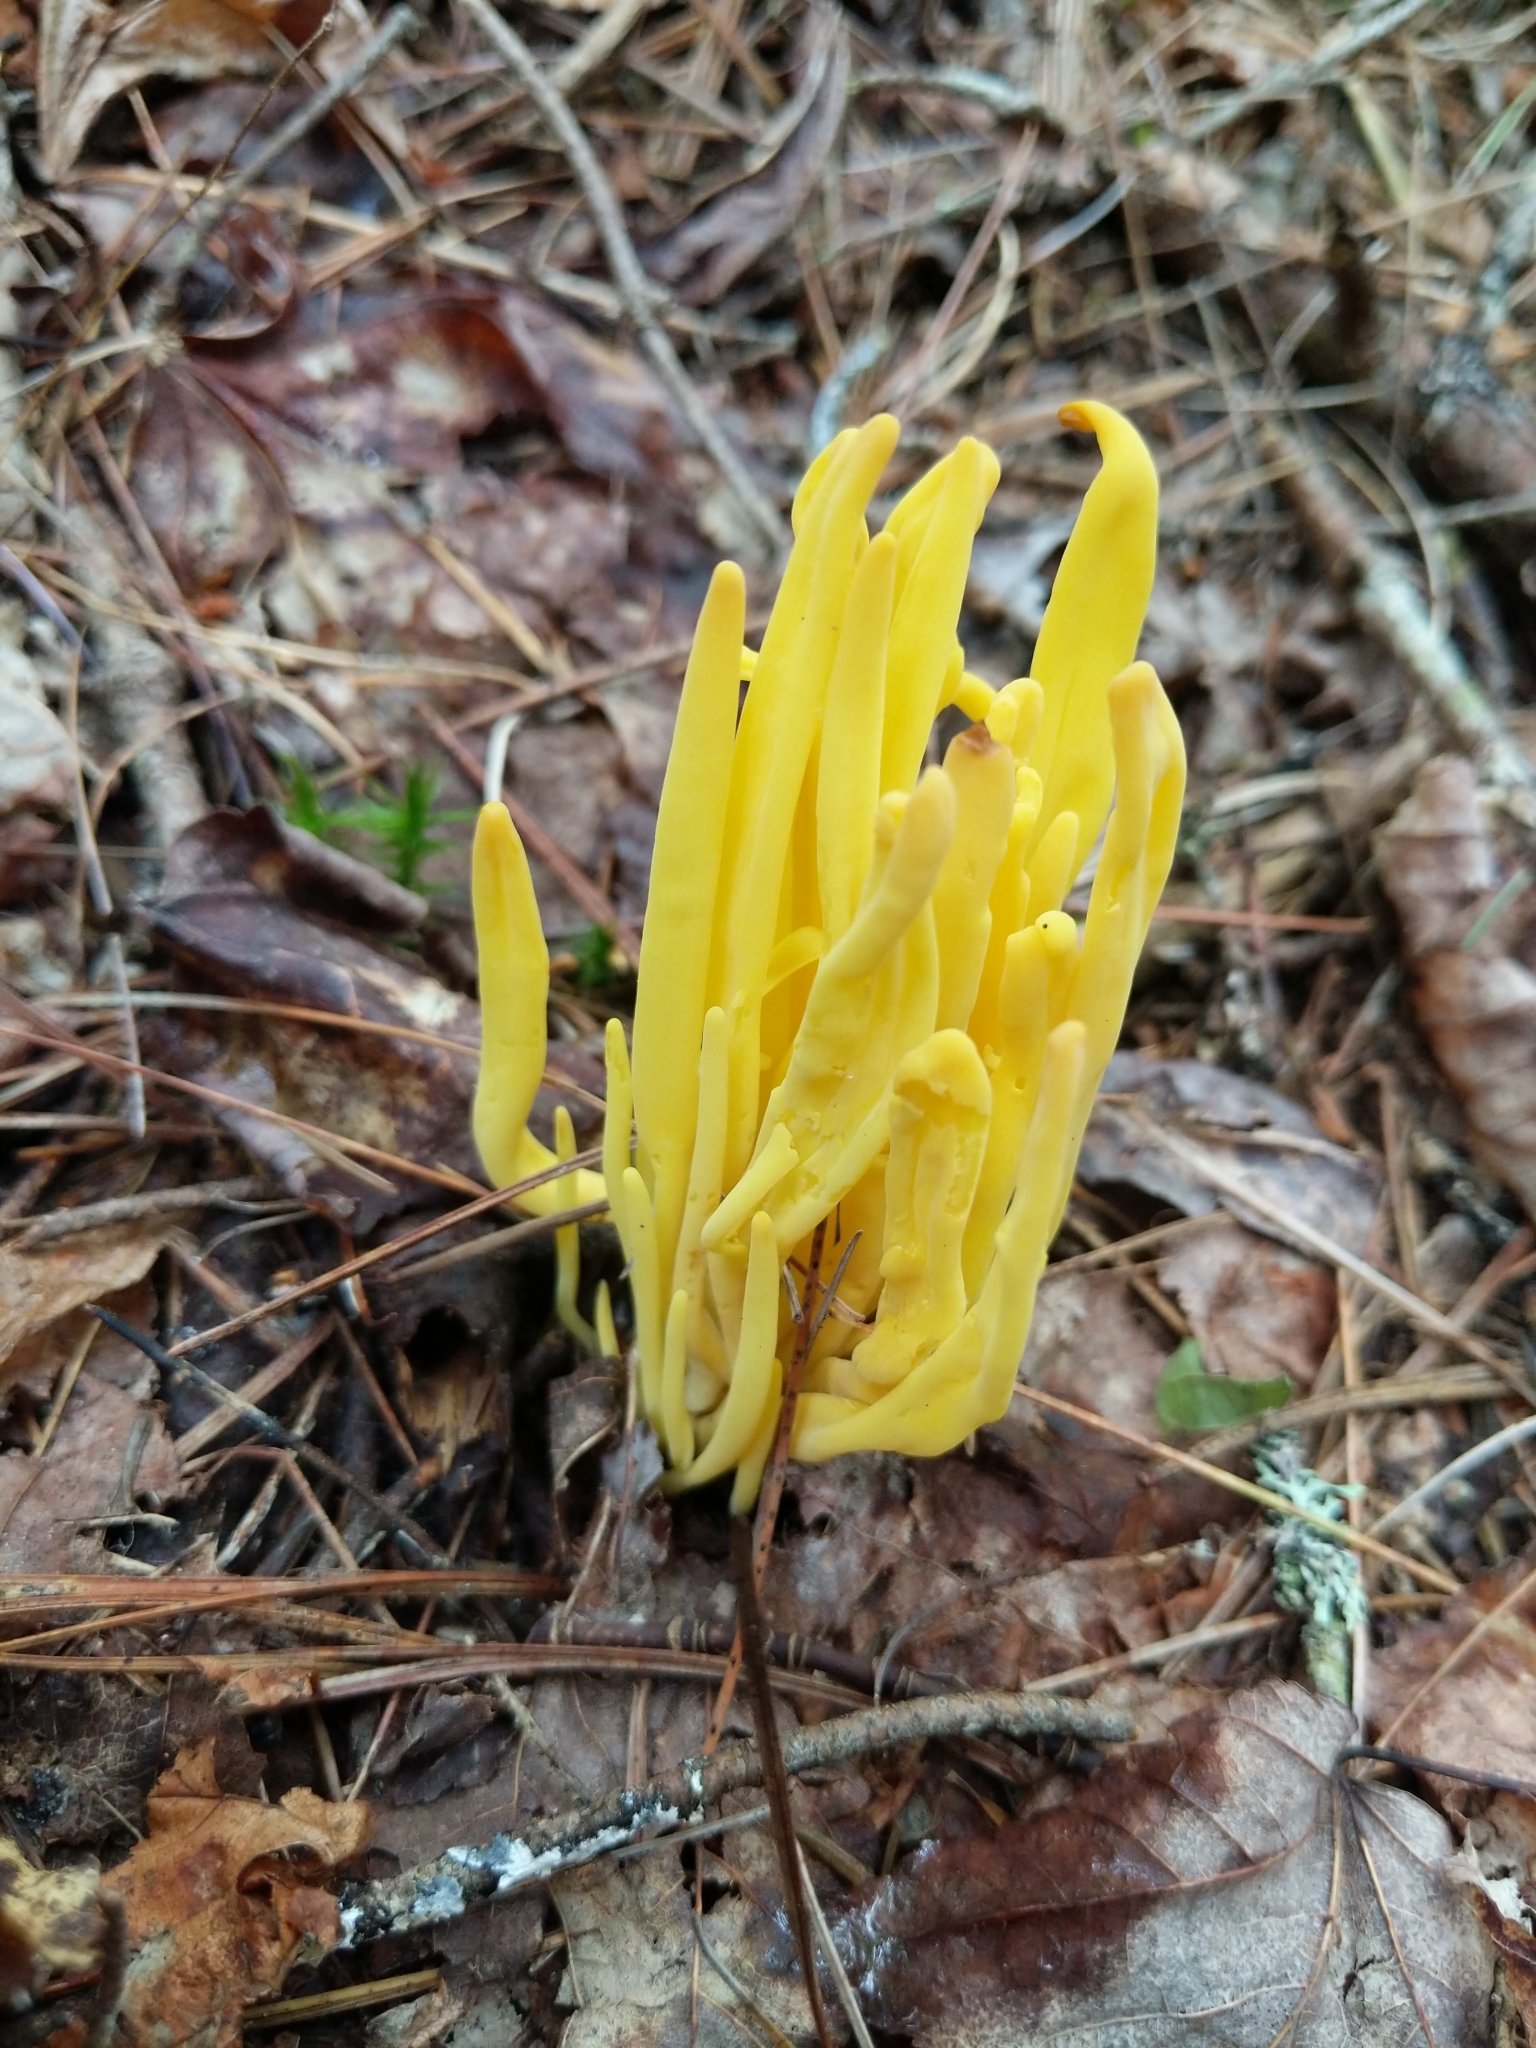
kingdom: Fungi
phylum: Basidiomycota
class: Agaricomycetes
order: Agaricales
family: Clavariaceae
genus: Clavulinopsis
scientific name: Clavulinopsis fusiformis
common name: Golden spindles
